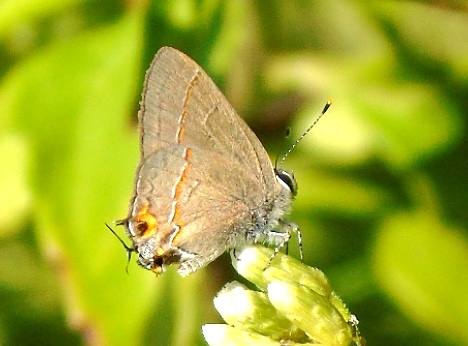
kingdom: Animalia
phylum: Arthropoda
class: Insecta
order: Lepidoptera
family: Lycaenidae
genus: Electrostrymon
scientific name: Electrostrymon endymion
